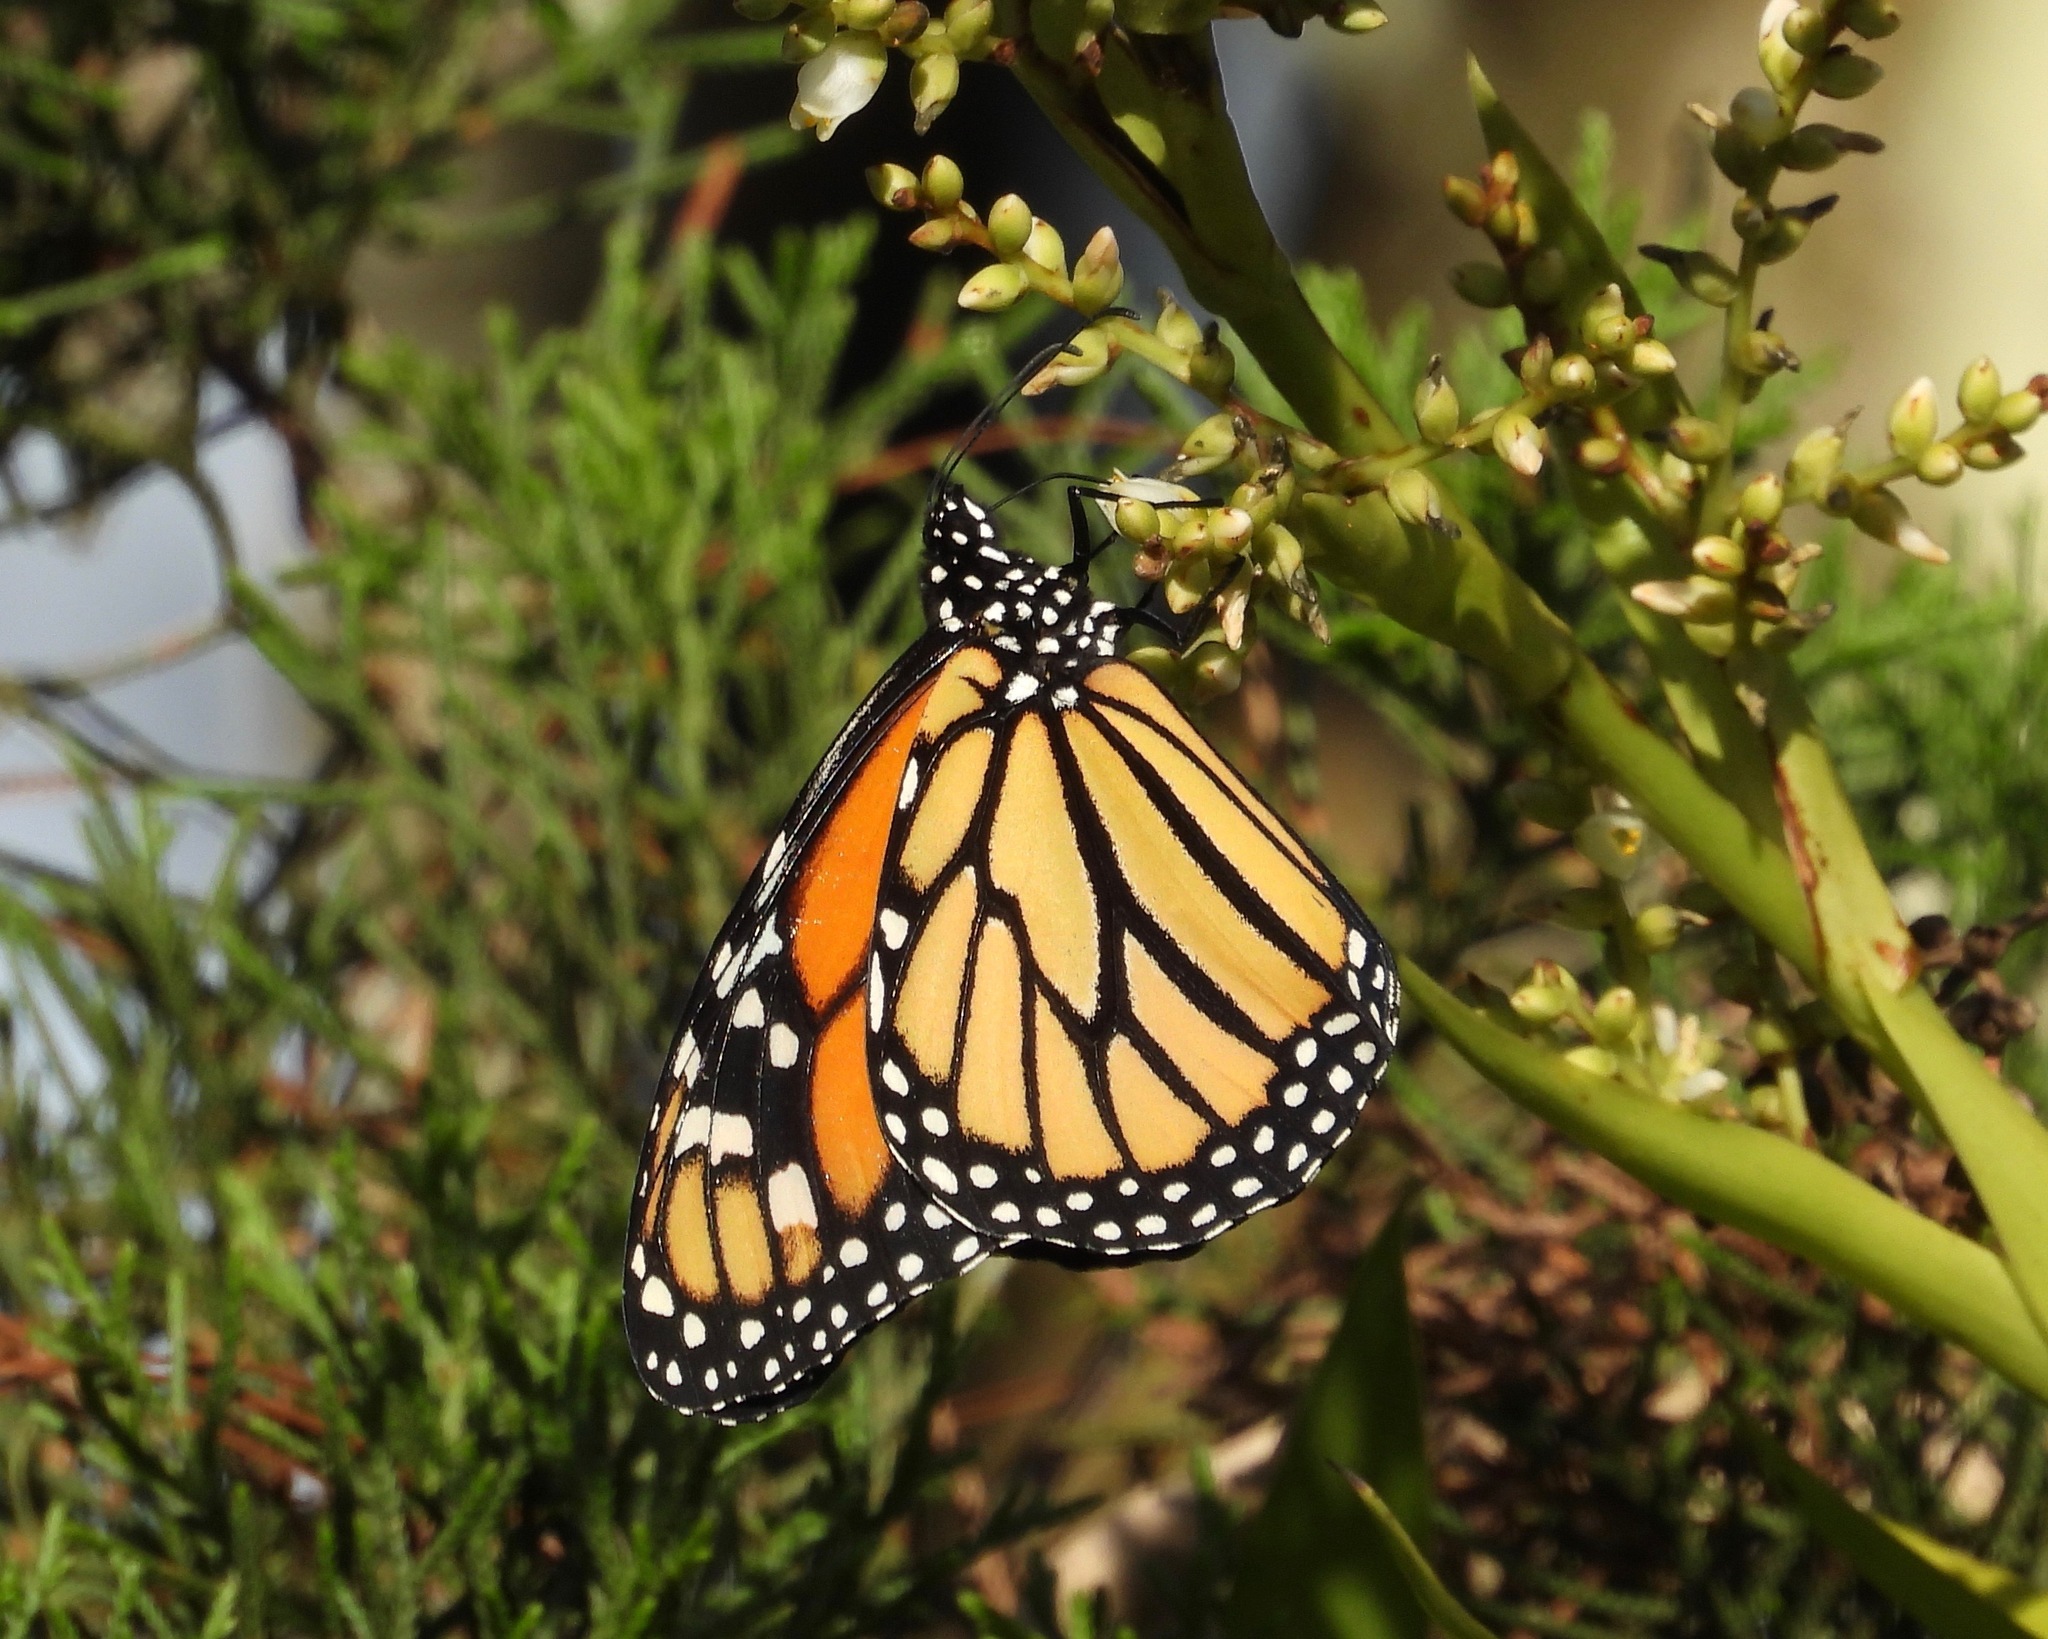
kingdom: Animalia
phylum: Arthropoda
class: Insecta
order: Lepidoptera
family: Nymphalidae
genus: Danaus
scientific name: Danaus plexippus
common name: Monarch
